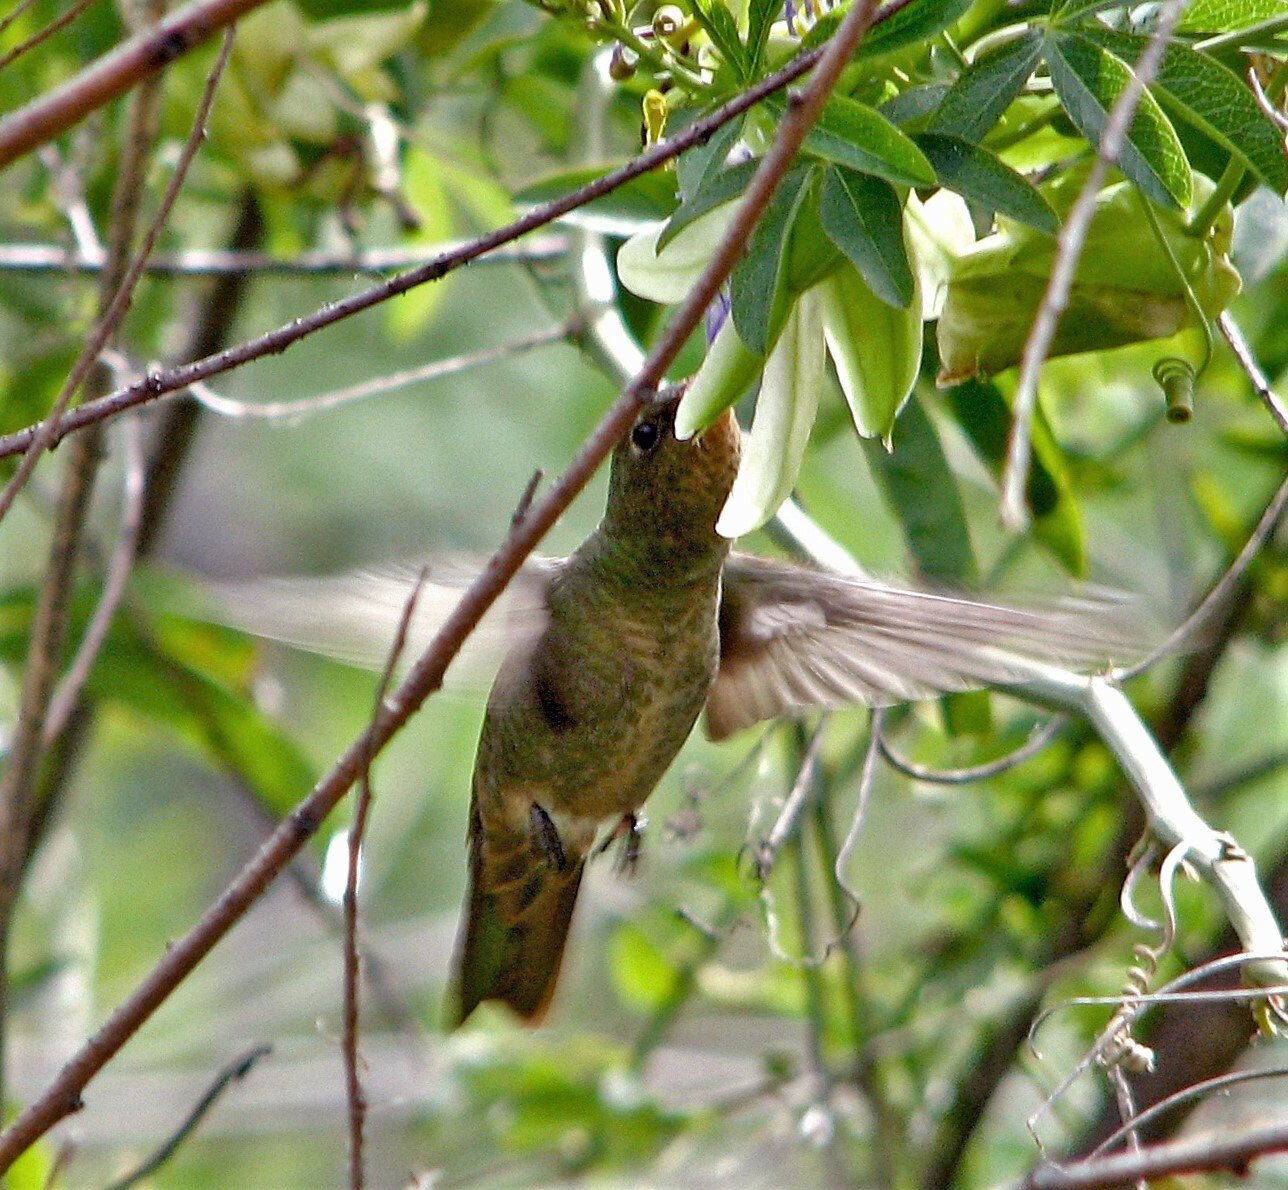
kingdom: Animalia
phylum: Chordata
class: Aves
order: Apodiformes
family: Trochilidae
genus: Hylocharis
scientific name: Hylocharis chrysura
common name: Gilded sapphire
